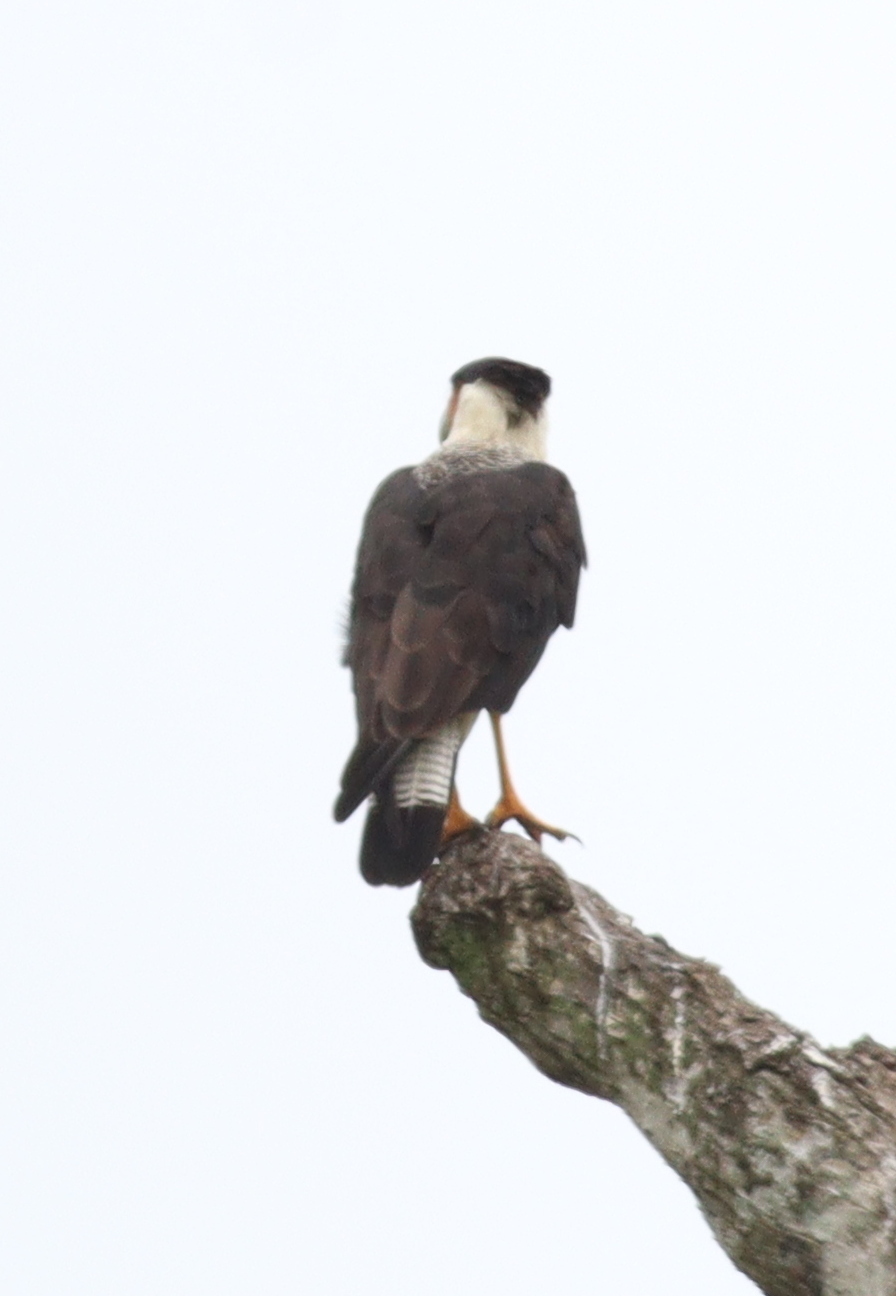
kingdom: Animalia
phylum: Chordata
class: Aves
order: Falconiformes
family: Falconidae
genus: Caracara
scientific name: Caracara plancus
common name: Southern caracara
